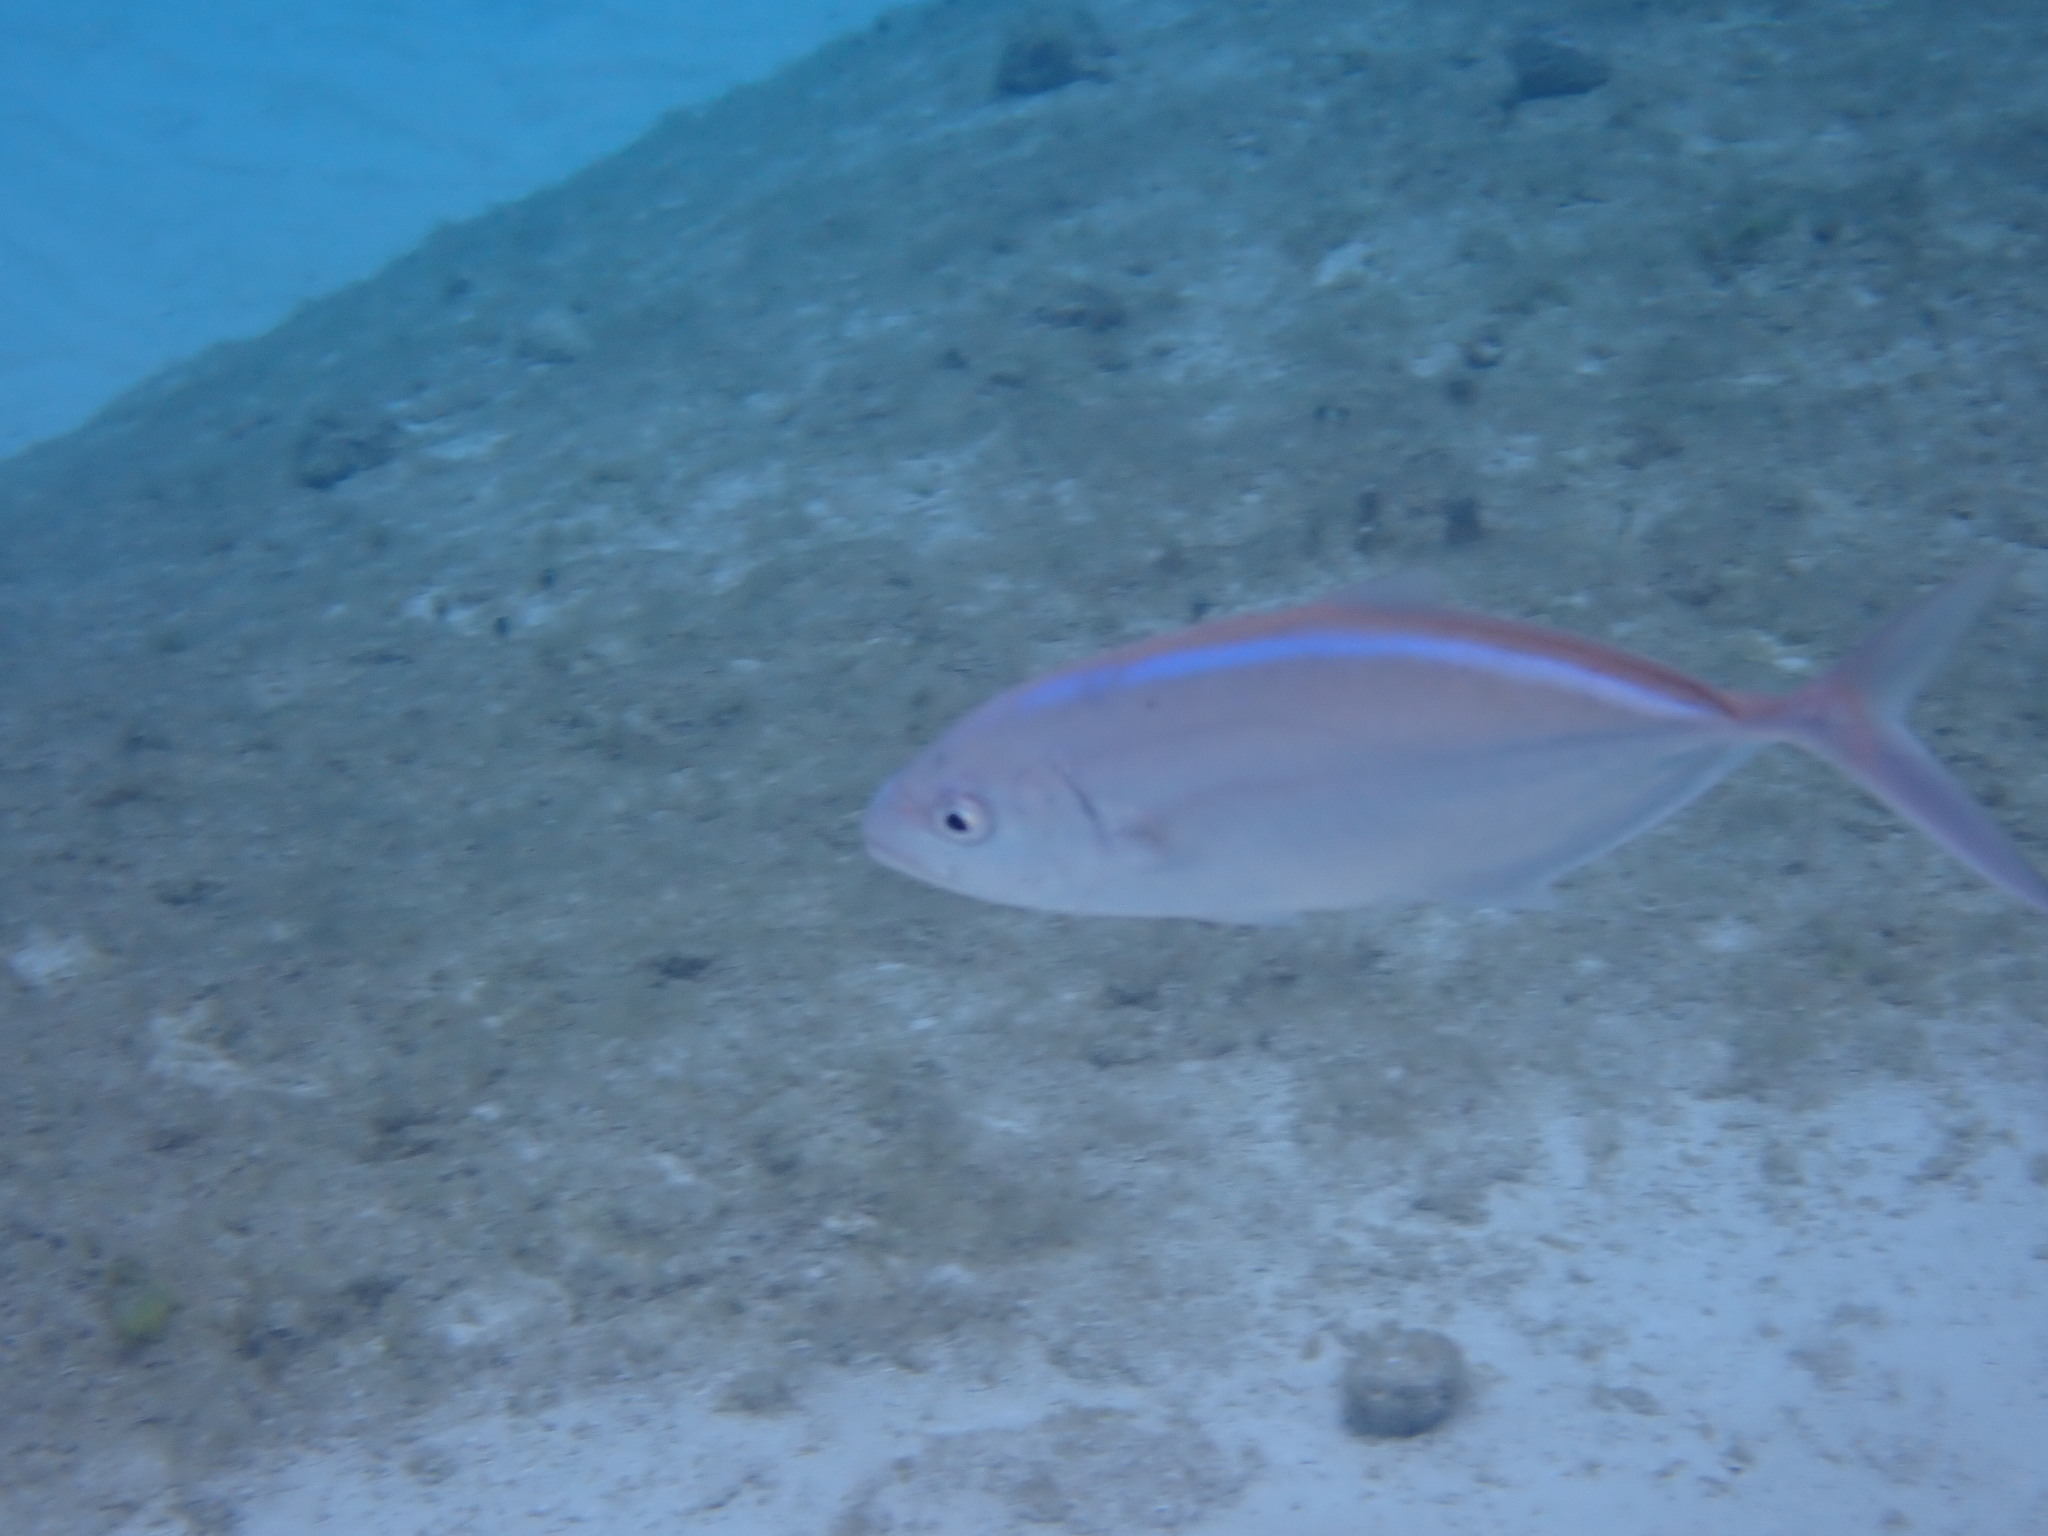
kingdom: Animalia
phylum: Chordata
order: Perciformes
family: Carangidae
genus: Caranx
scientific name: Caranx ruber
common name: Bar jack
